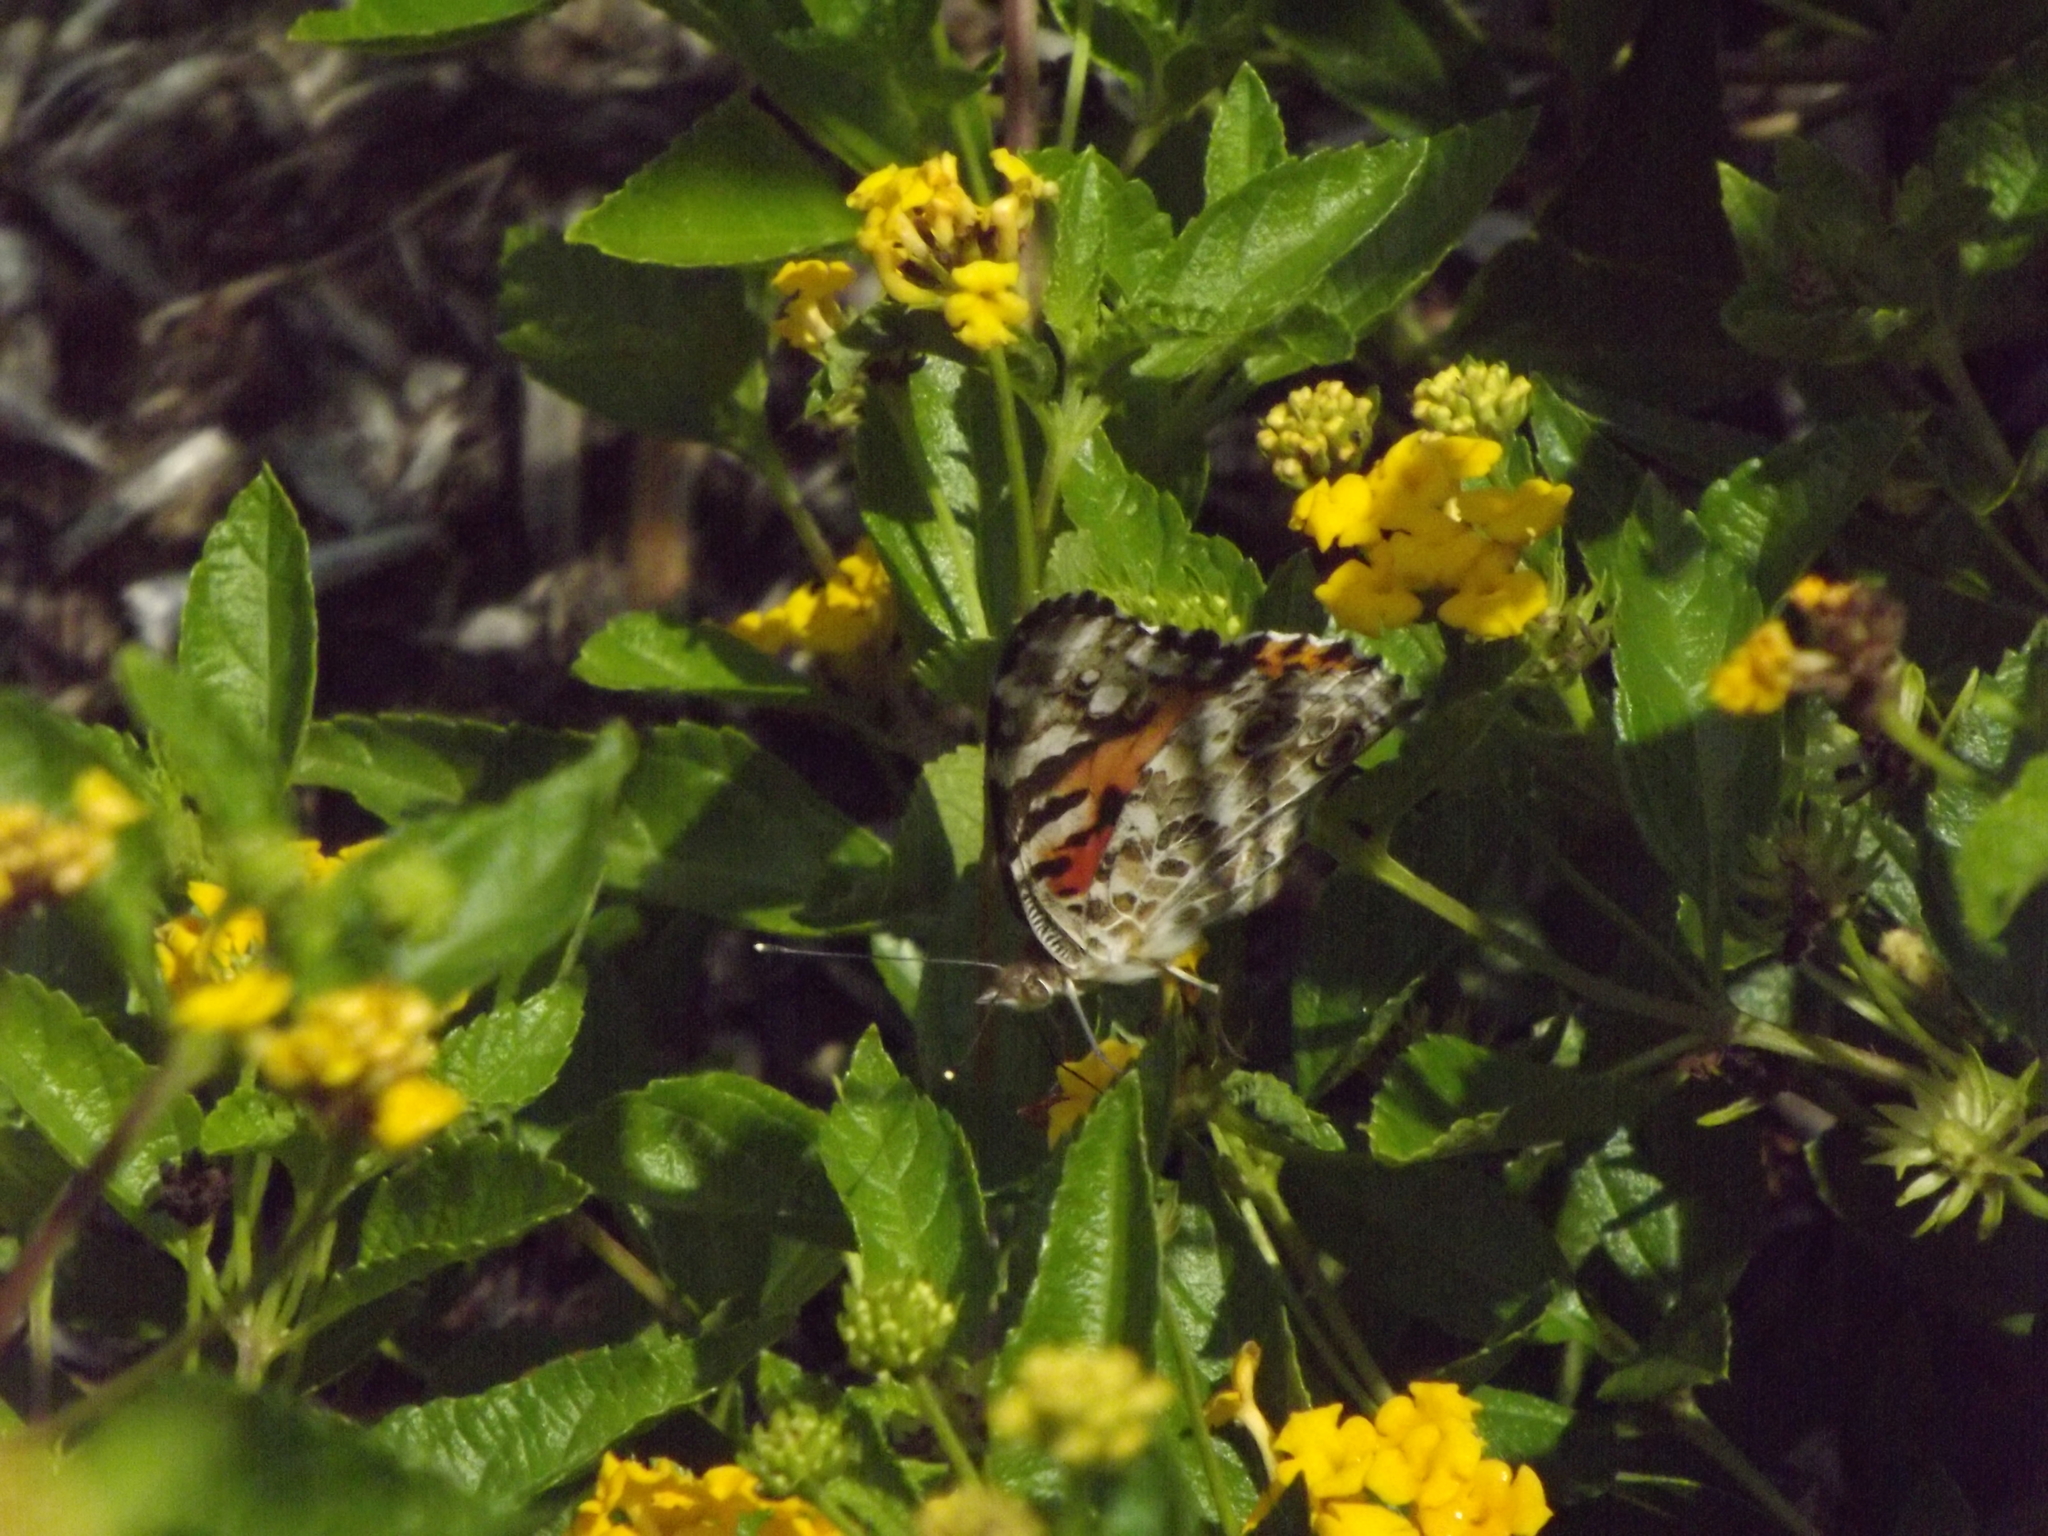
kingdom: Animalia
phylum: Arthropoda
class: Insecta
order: Lepidoptera
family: Nymphalidae
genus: Vanessa
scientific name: Vanessa cardui
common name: Painted lady
